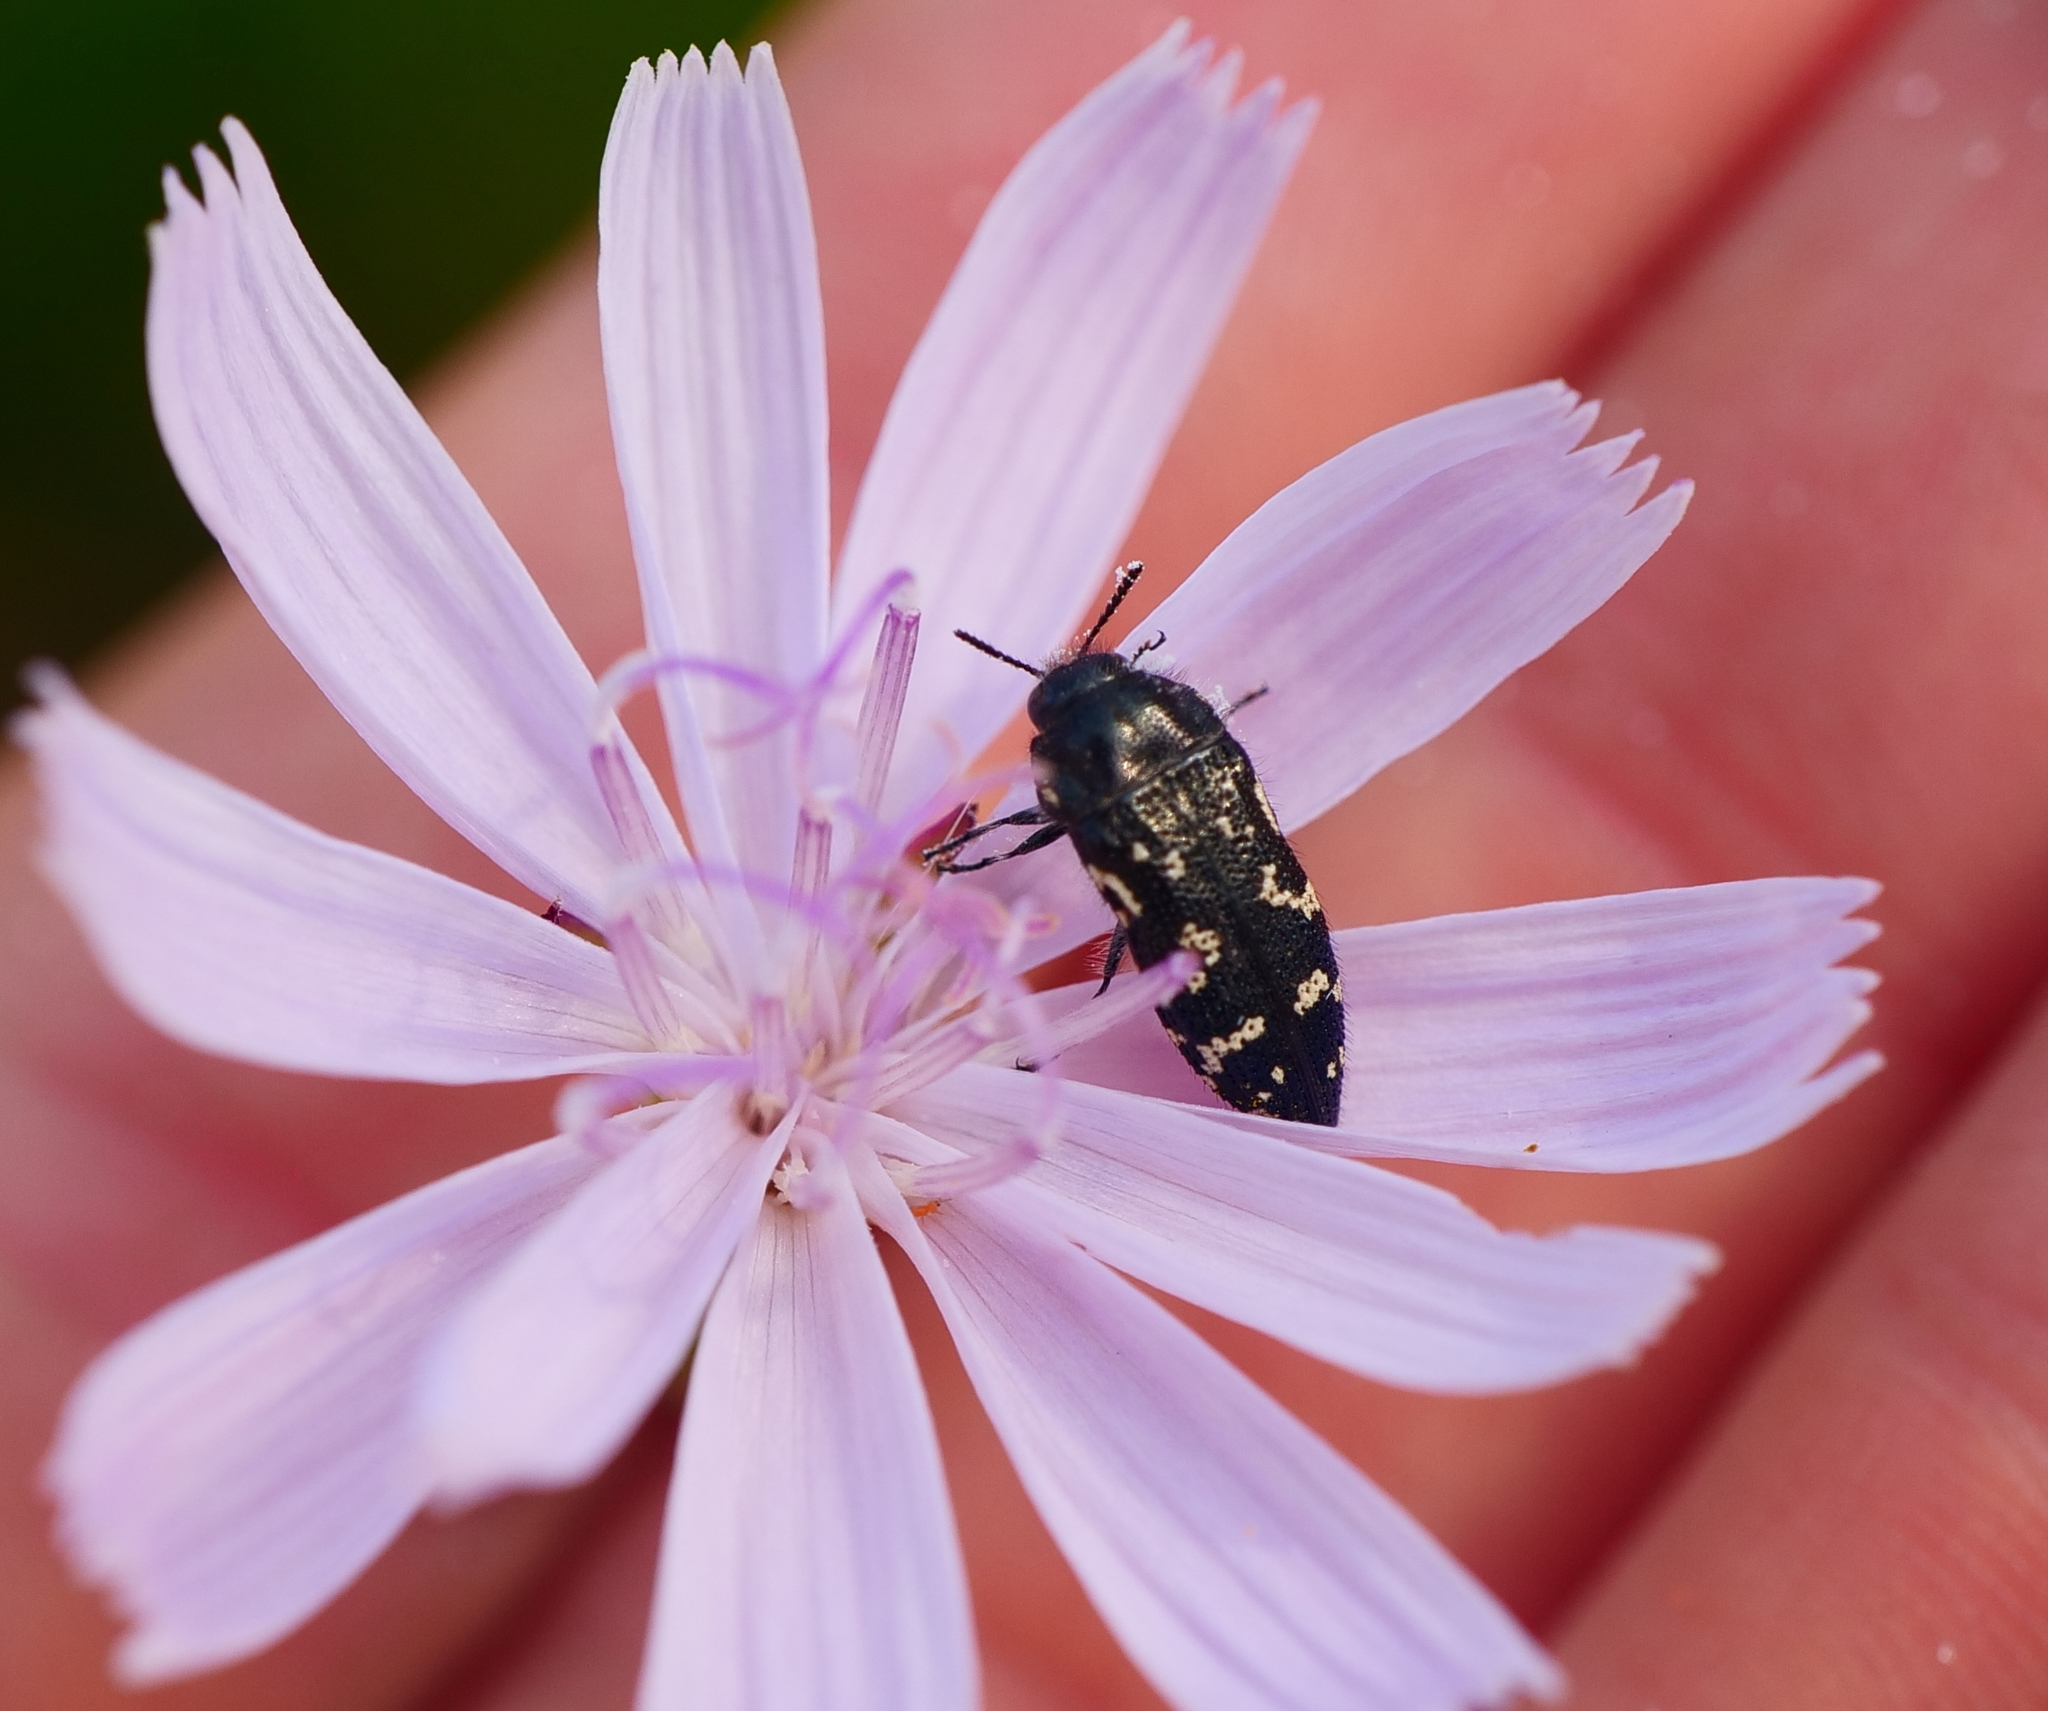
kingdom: Animalia
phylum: Arthropoda
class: Insecta
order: Coleoptera
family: Buprestidae
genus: Acmaeodera
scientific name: Acmaeodera ornata
